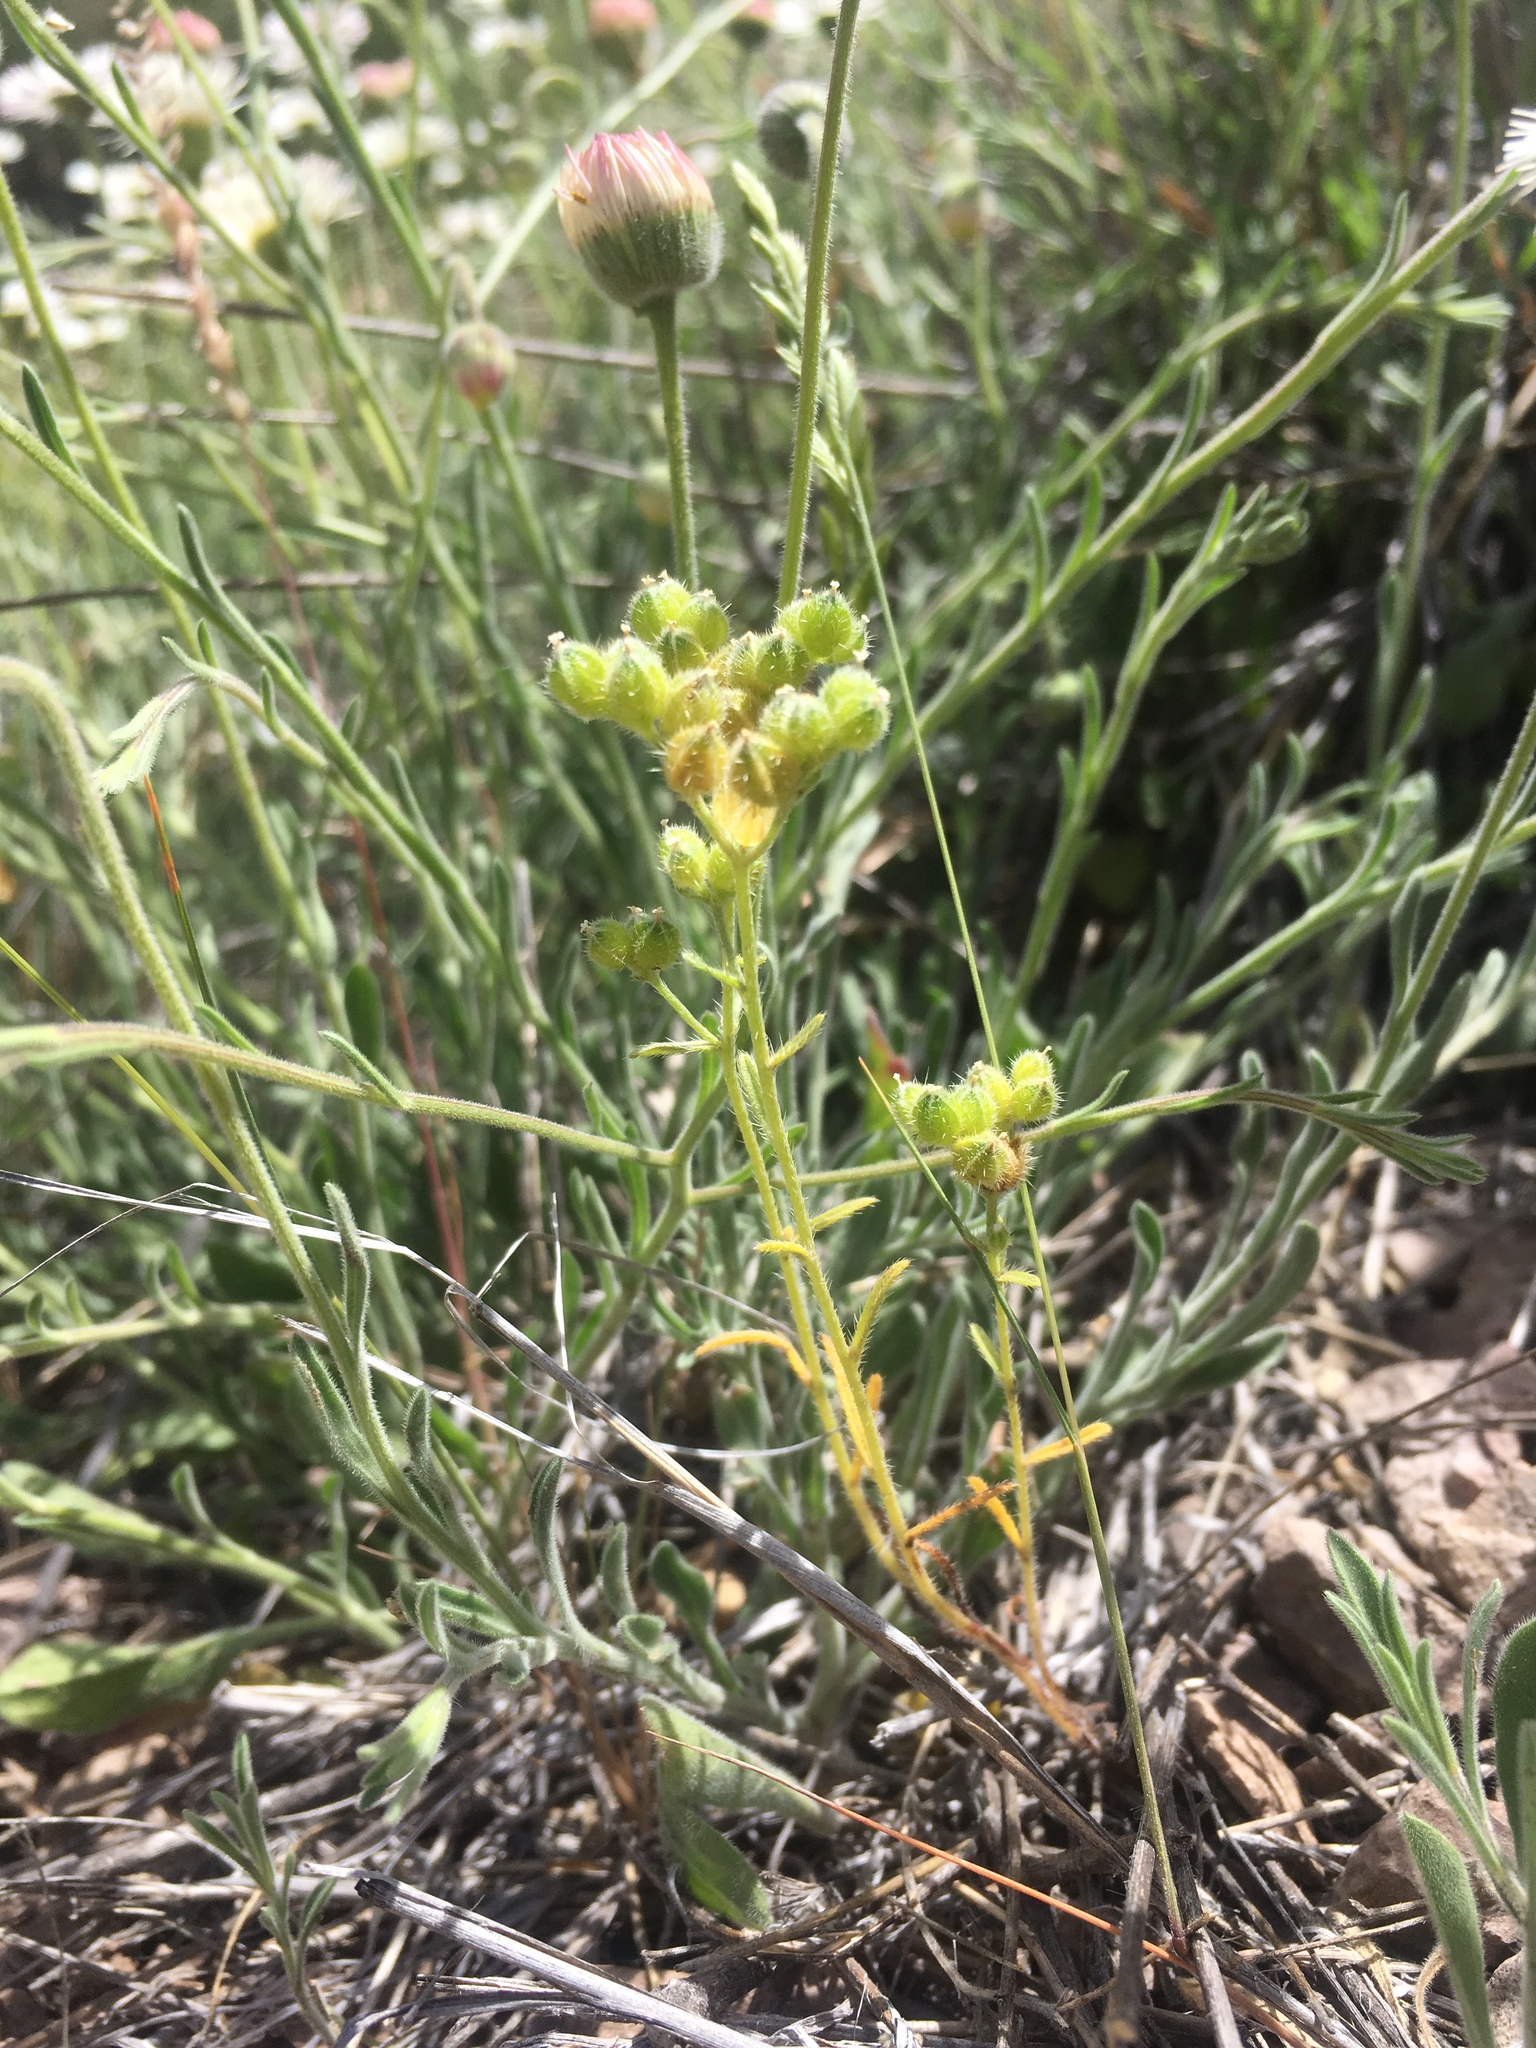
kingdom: Plantae
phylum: Tracheophyta
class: Magnoliopsida
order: Boraginales
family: Boraginaceae
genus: Cryptantha
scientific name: Cryptantha pterocarya
